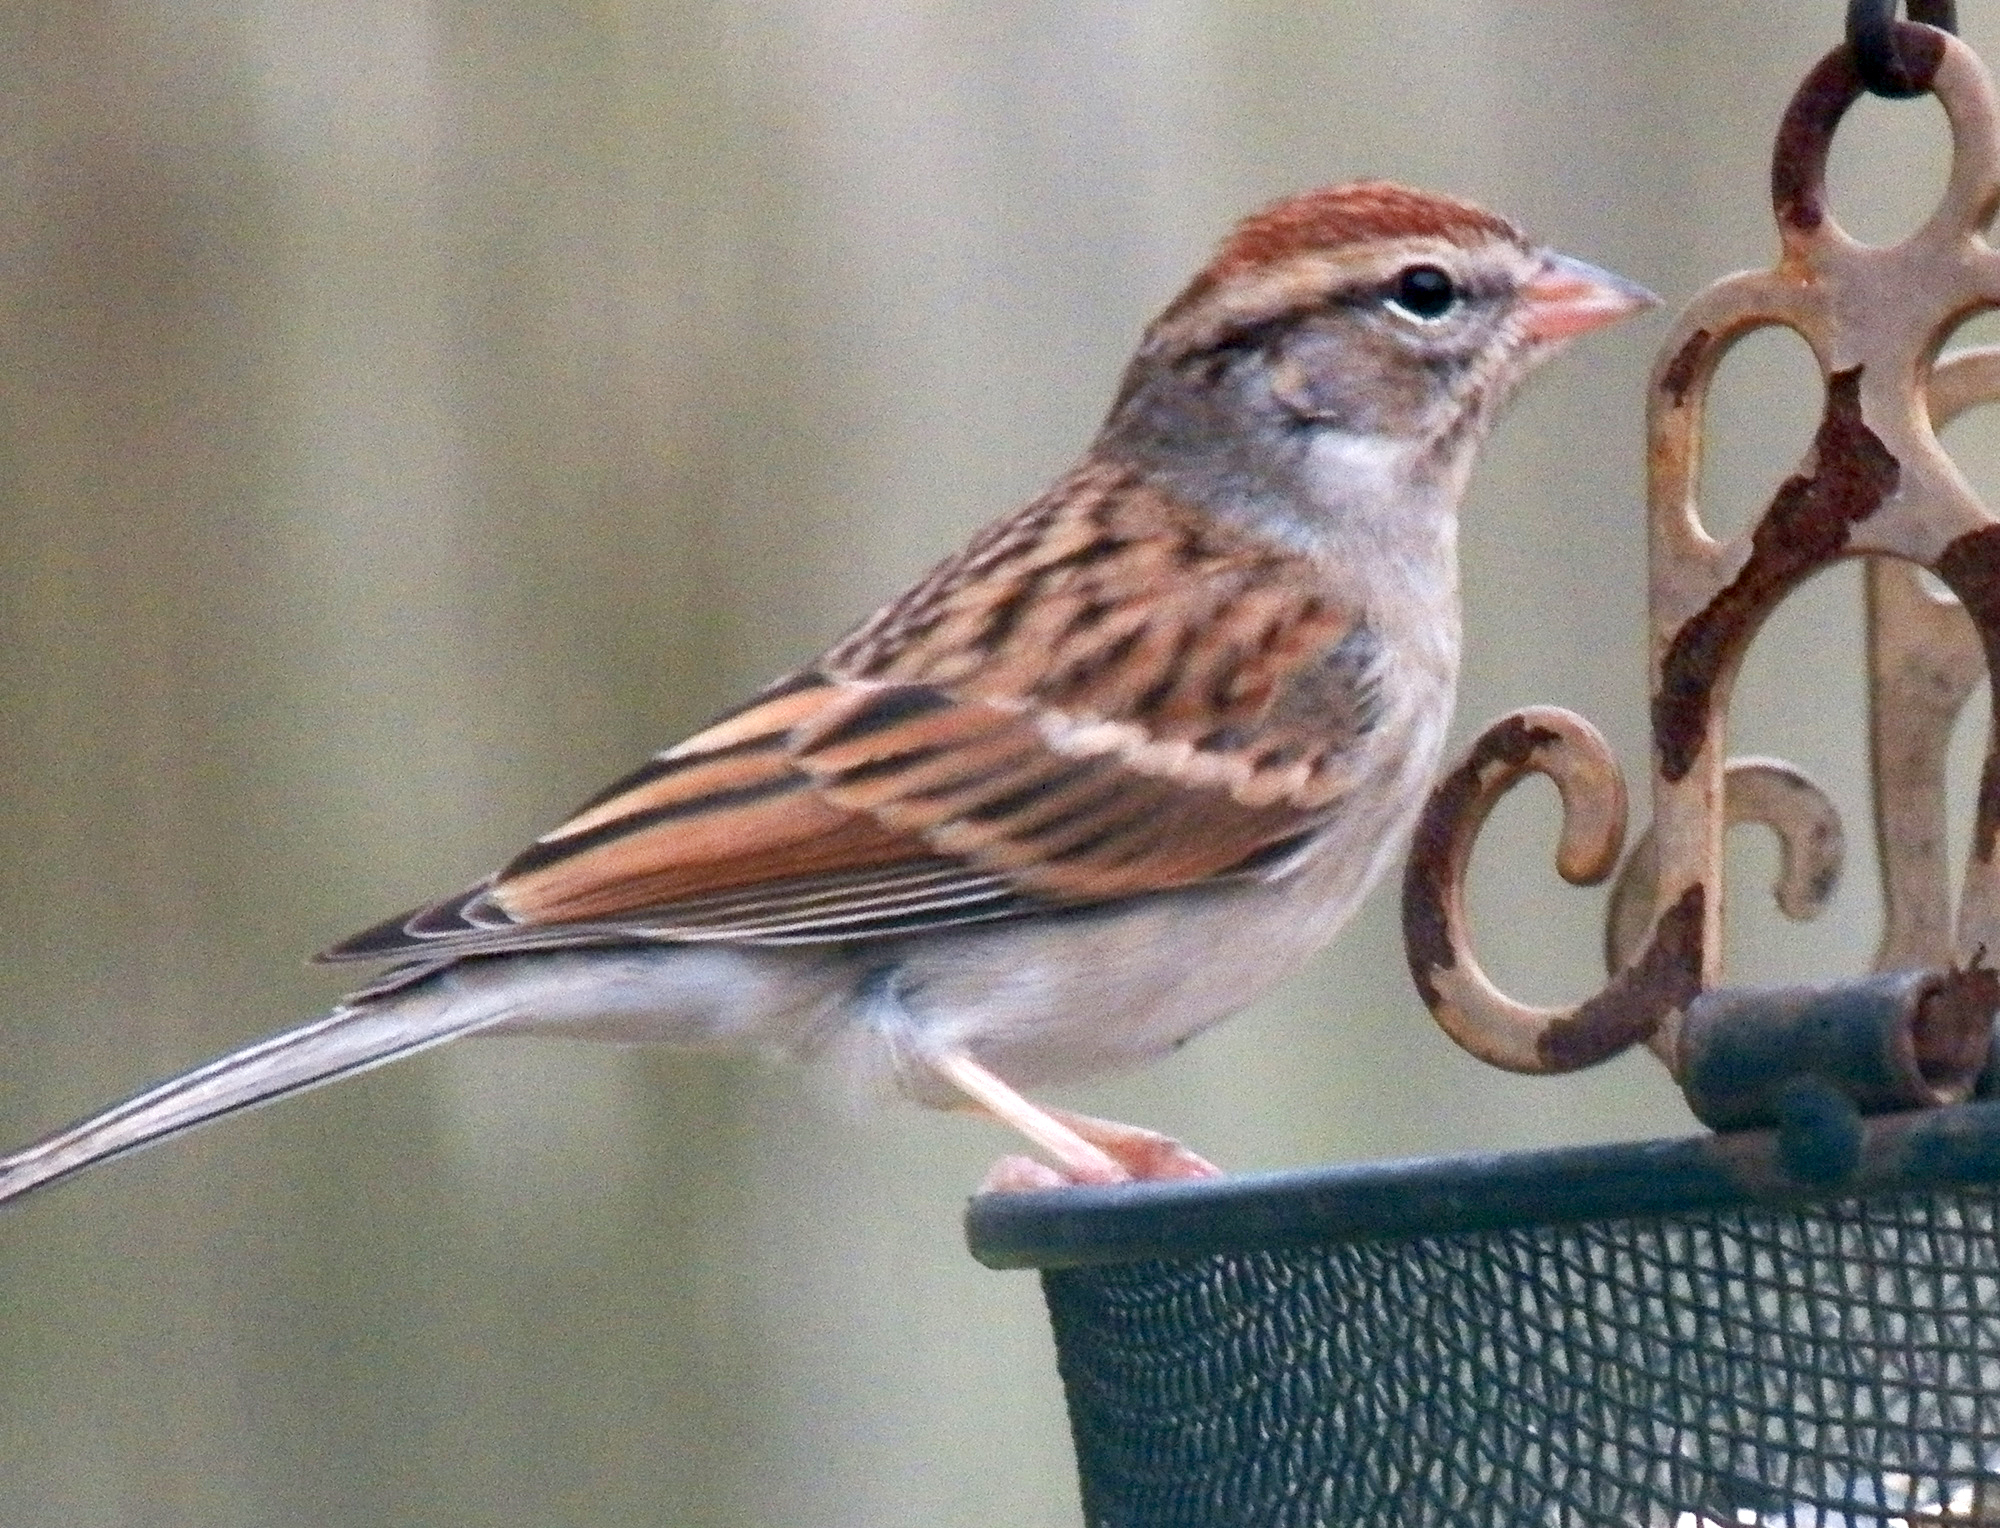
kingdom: Animalia
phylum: Chordata
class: Aves
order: Passeriformes
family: Passerellidae
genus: Spizella
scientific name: Spizella passerina
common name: Chipping sparrow
